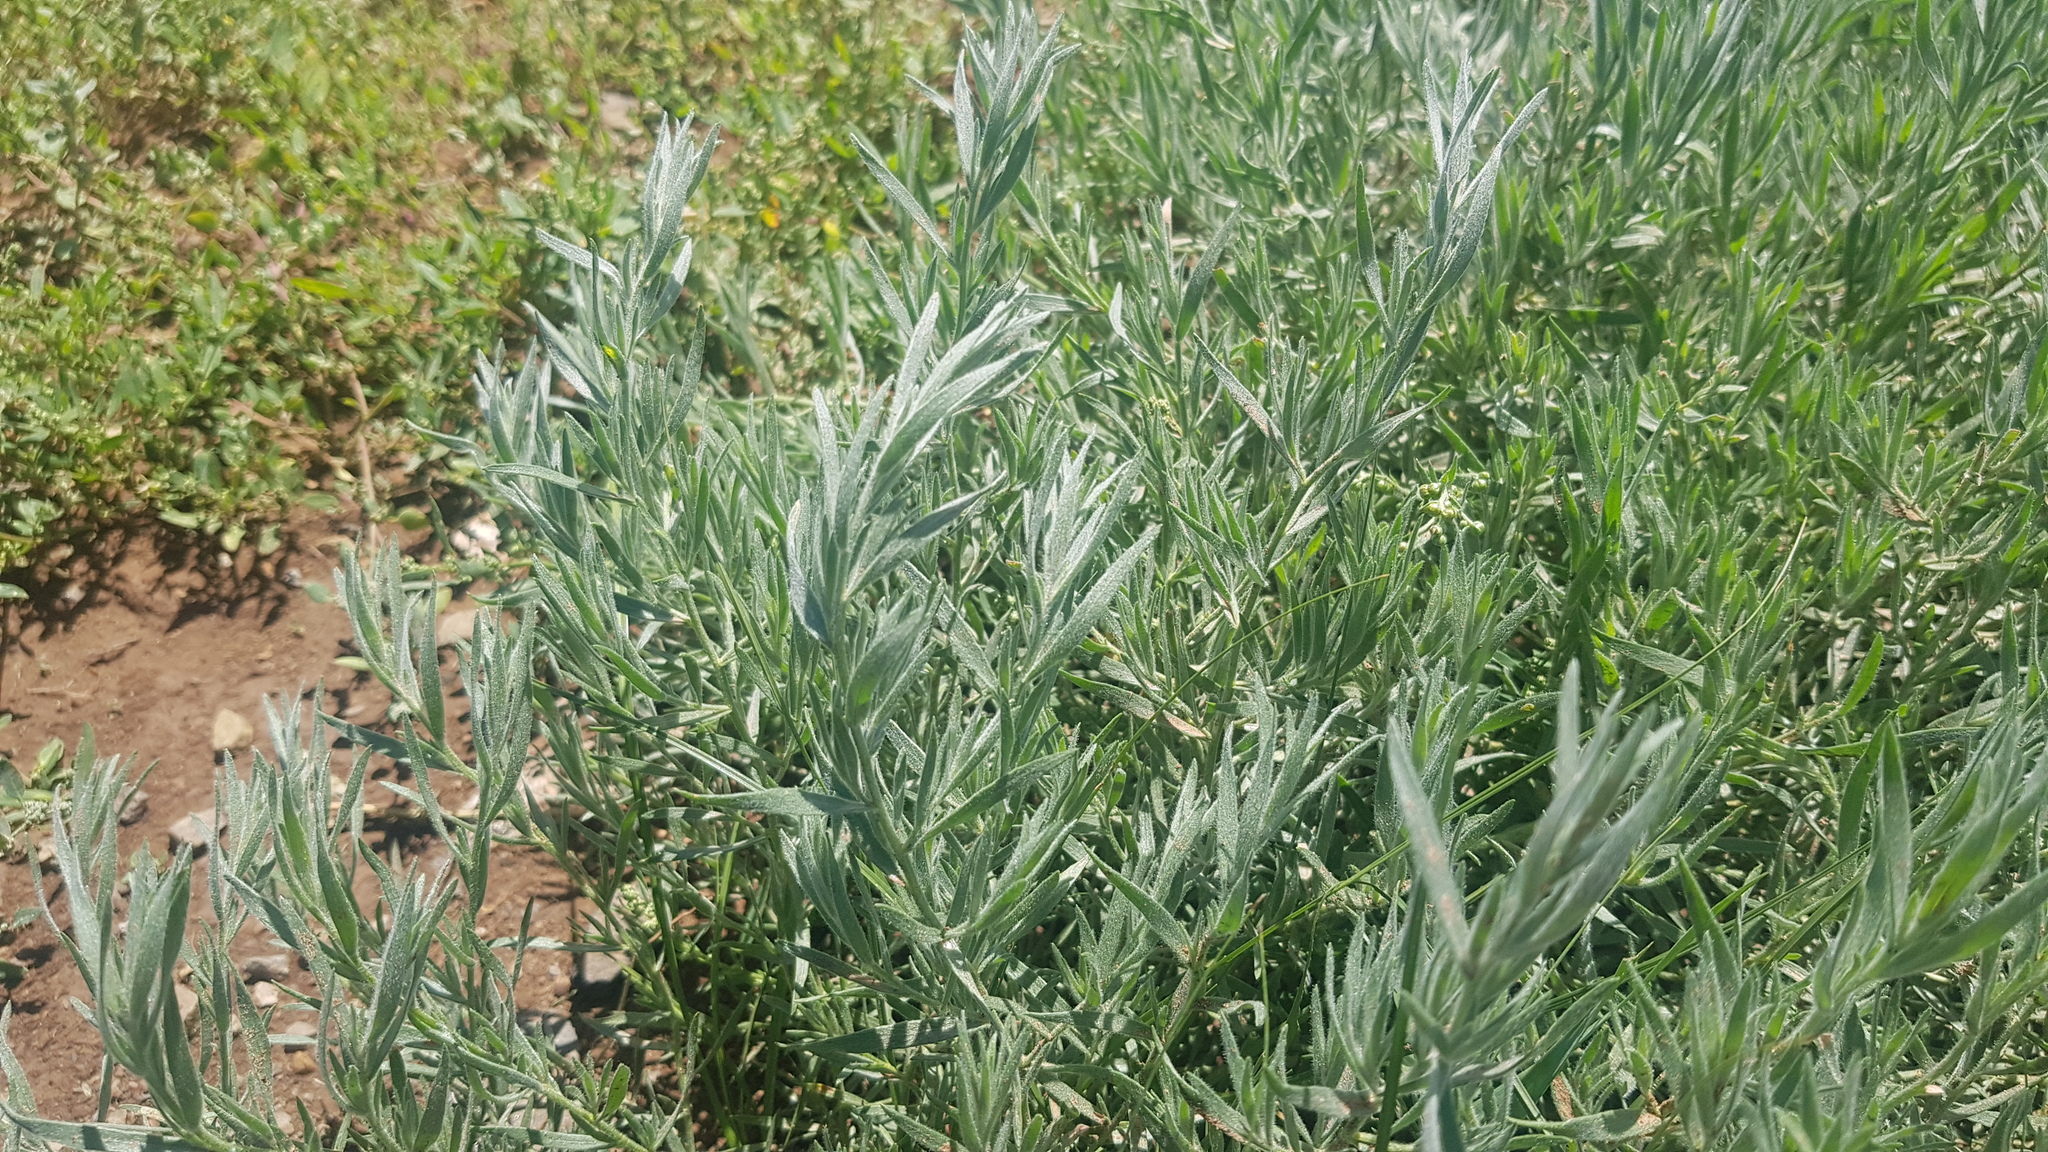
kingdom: Plantae
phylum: Tracheophyta
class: Magnoliopsida
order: Asterales
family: Asteraceae
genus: Artemisia
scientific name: Artemisia glauca
